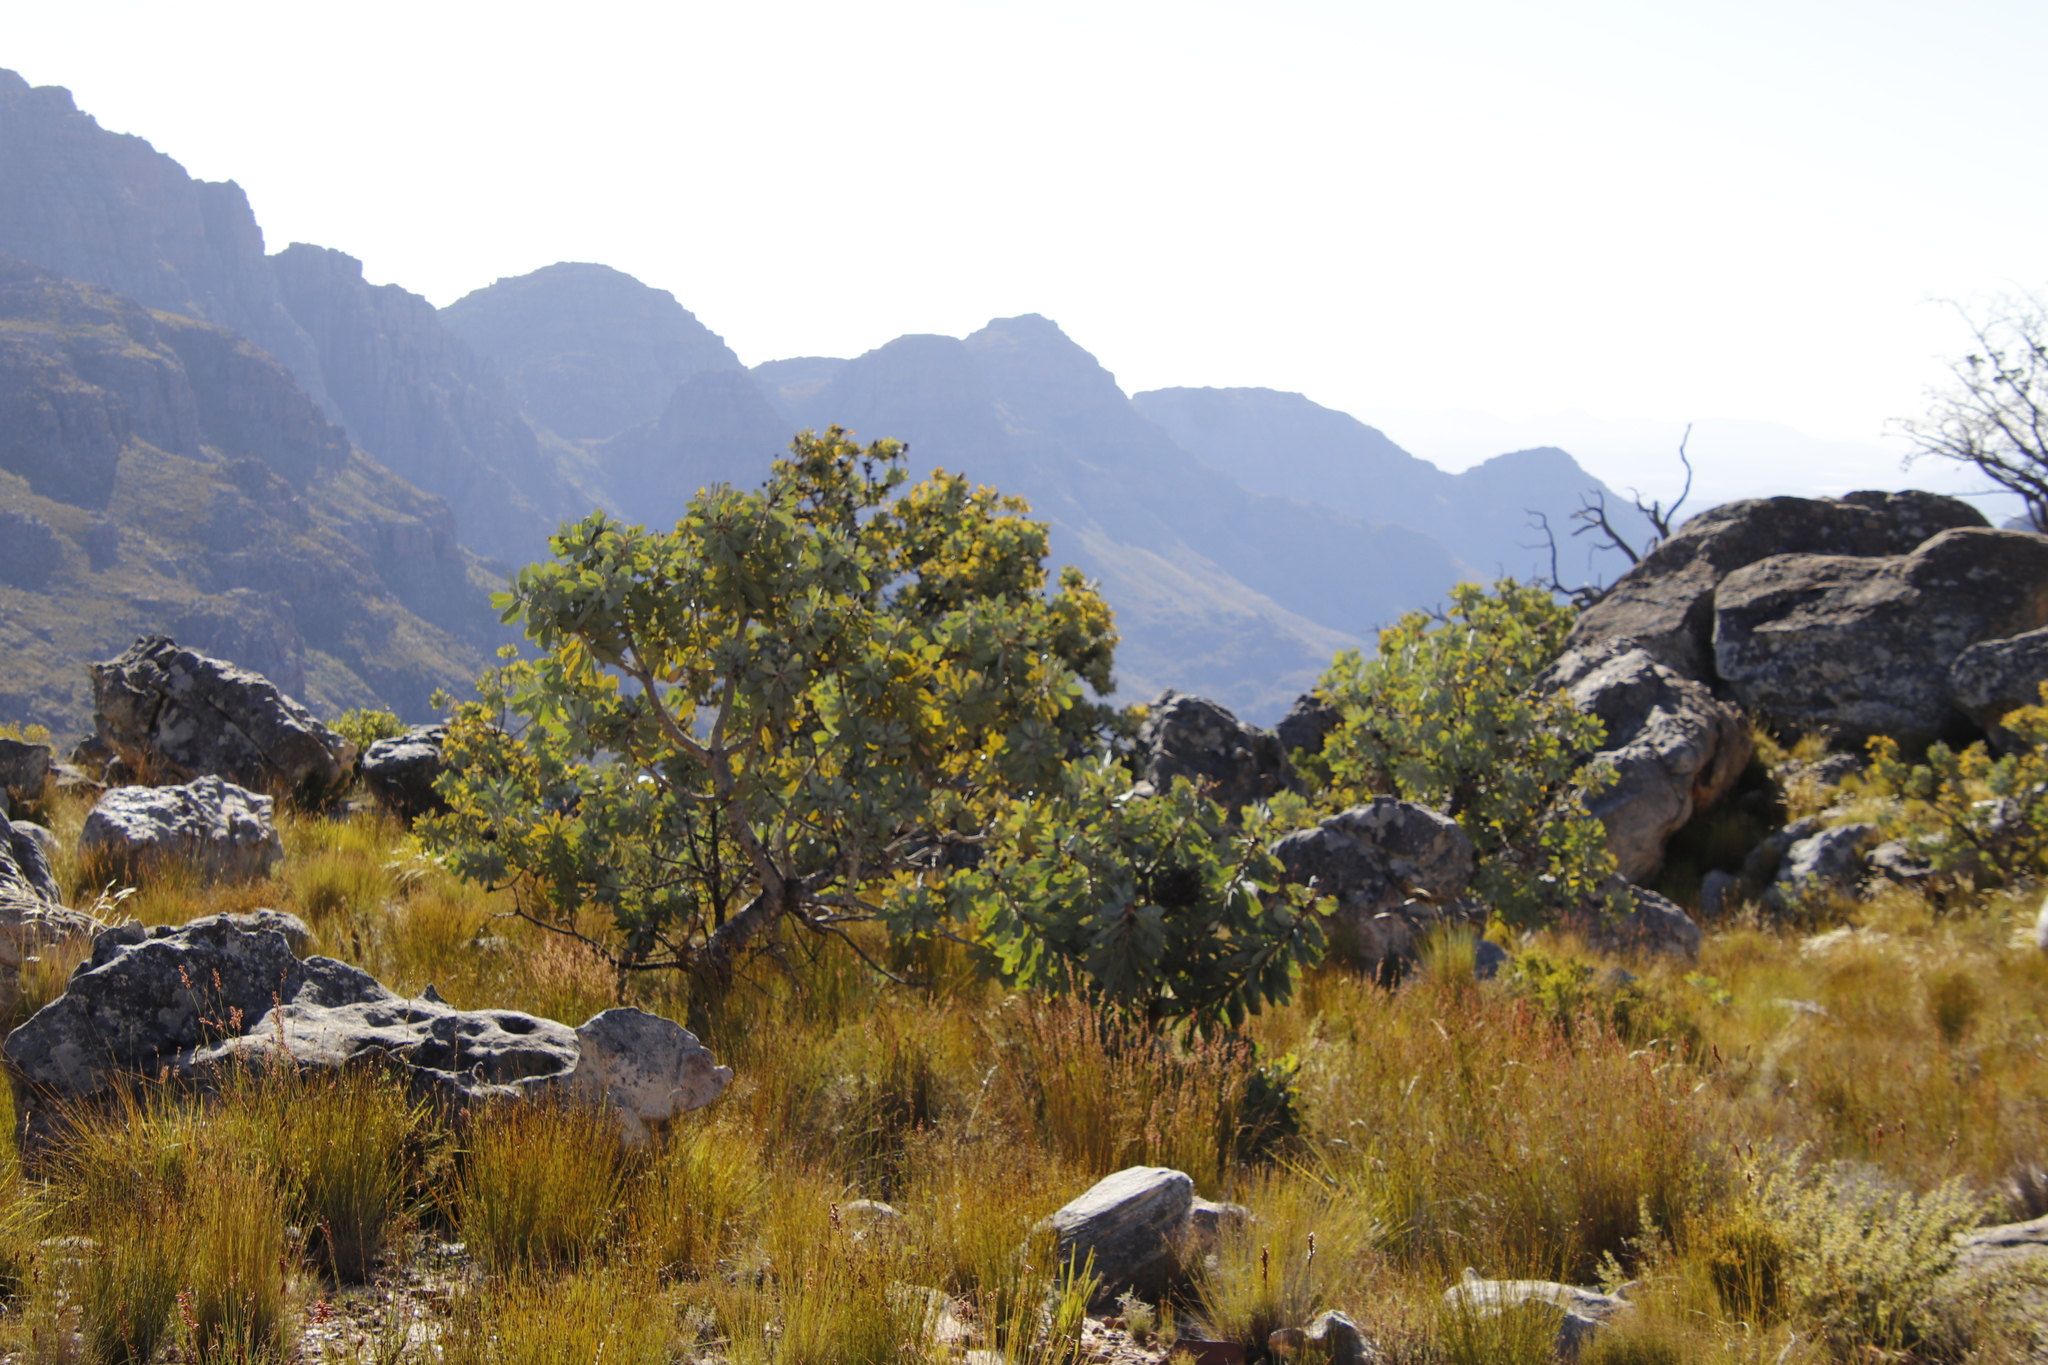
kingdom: Plantae
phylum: Tracheophyta
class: Magnoliopsida
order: Proteales
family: Proteaceae
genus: Protea
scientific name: Protea nitida
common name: Tree protea
